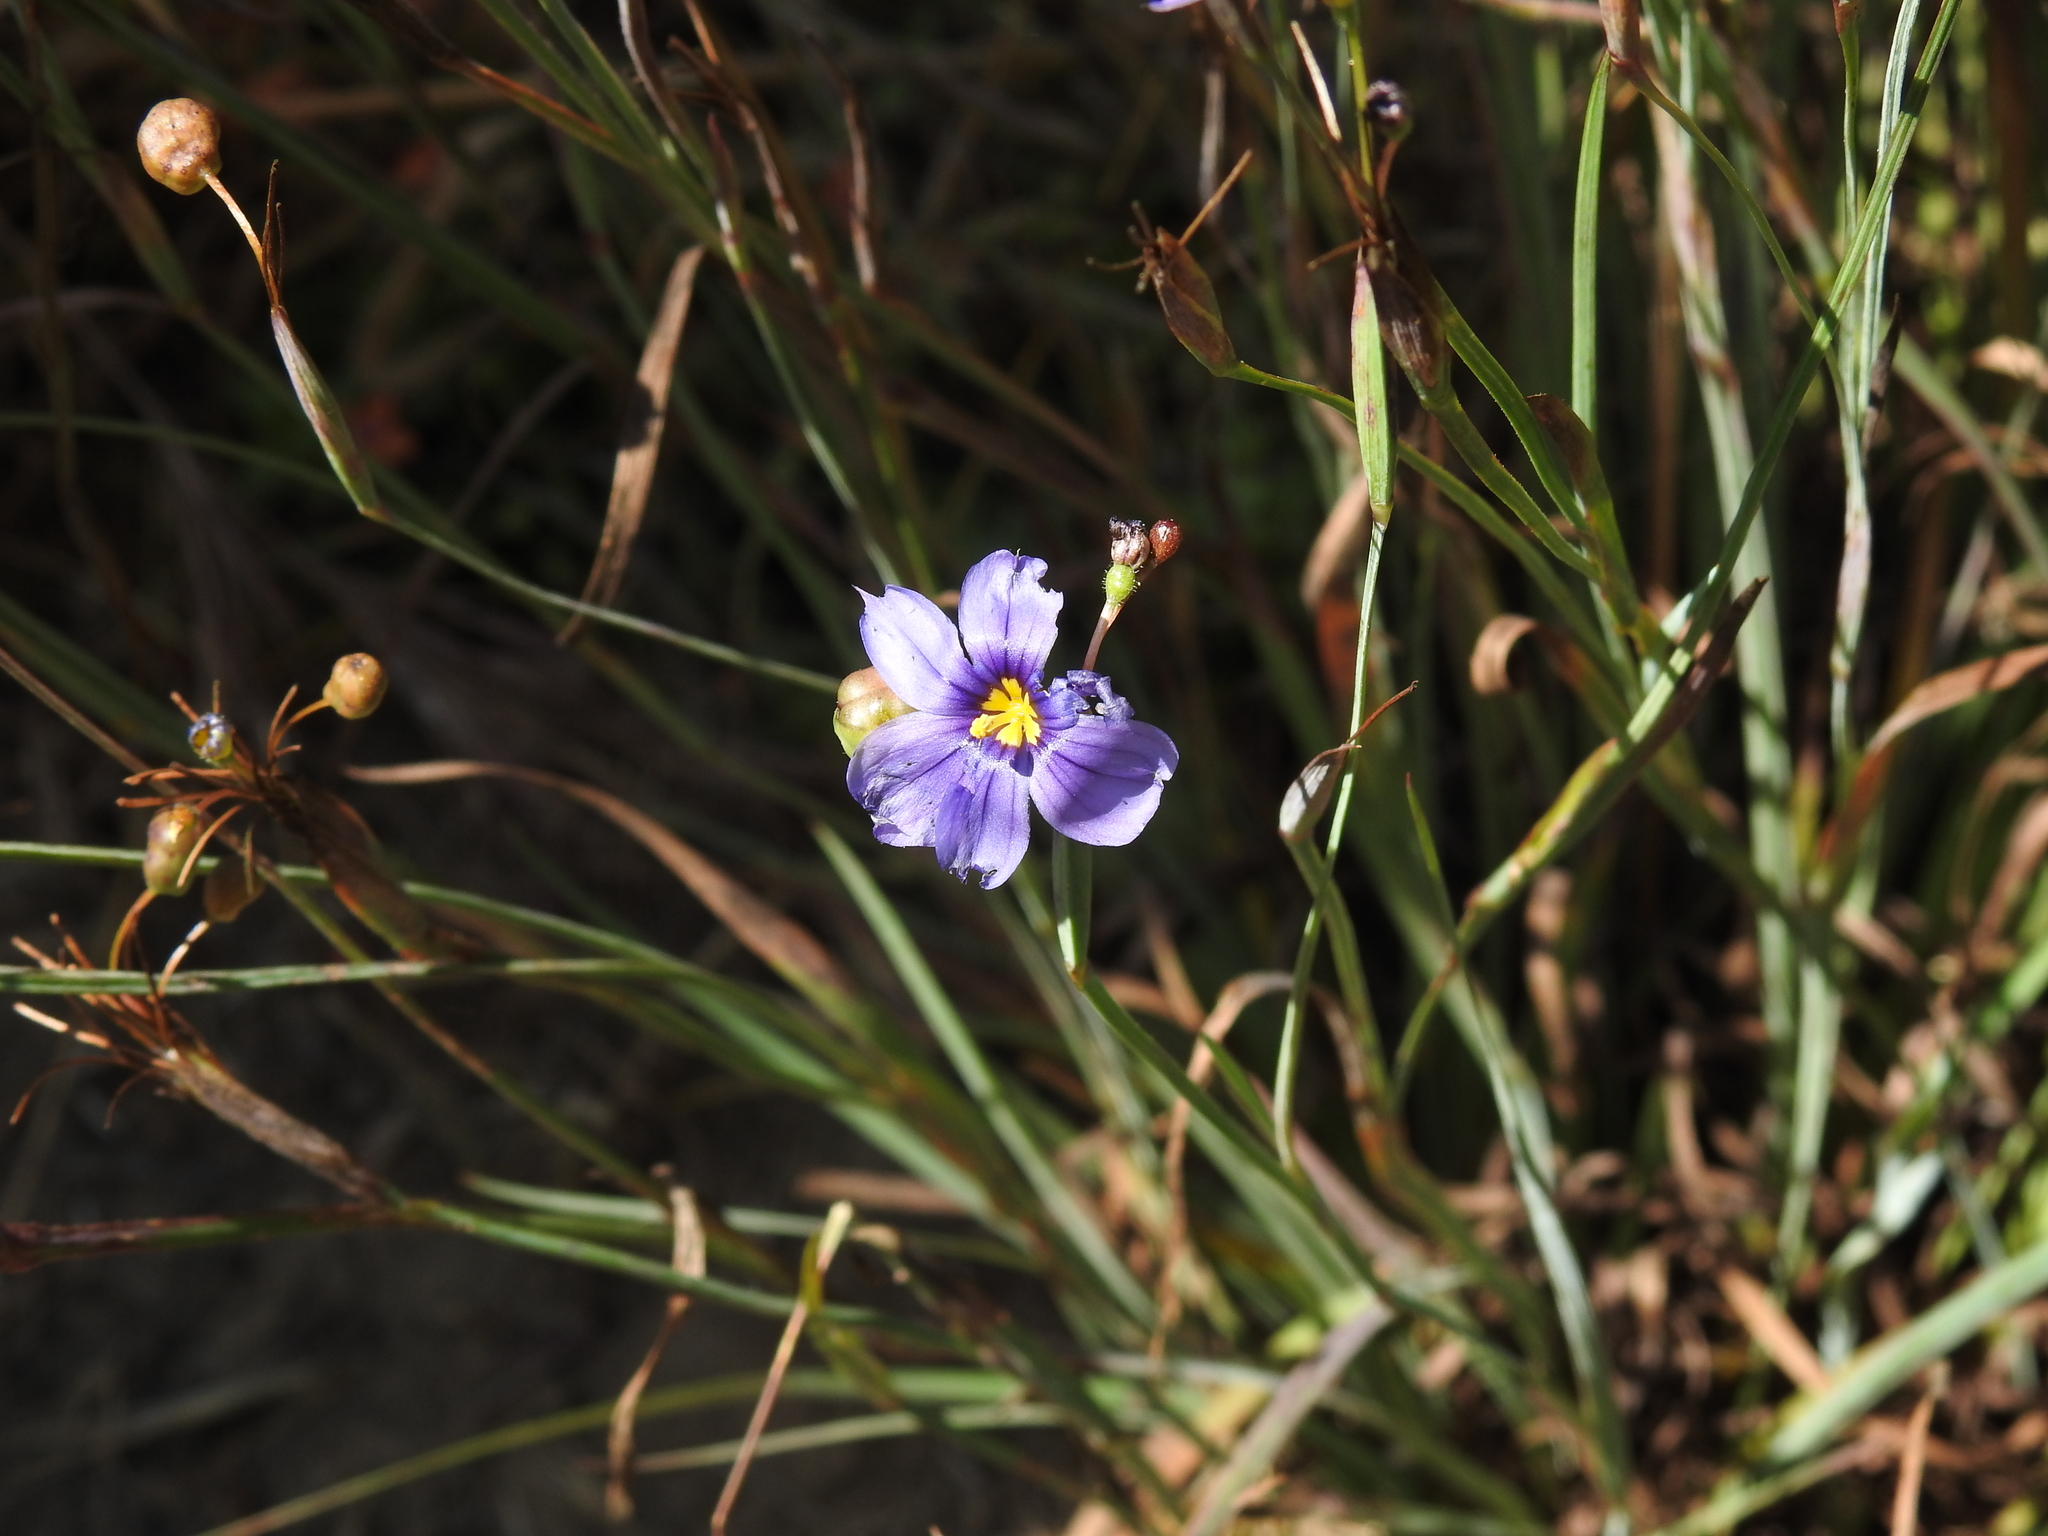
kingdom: Plantae
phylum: Tracheophyta
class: Liliopsida
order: Asparagales
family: Iridaceae
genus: Sisyrinchium
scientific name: Sisyrinchium bellum
